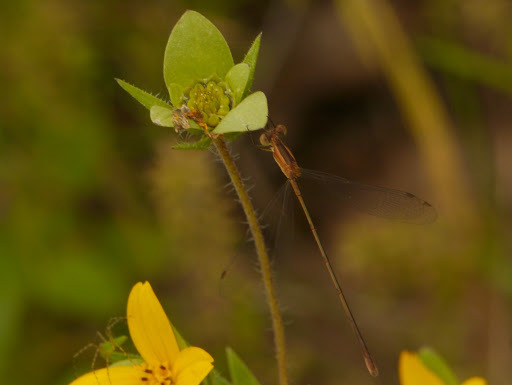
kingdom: Animalia
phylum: Arthropoda
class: Insecta
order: Odonata
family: Lestidae
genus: Lestes
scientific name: Lestes alacer
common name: Plateau spreadwing
